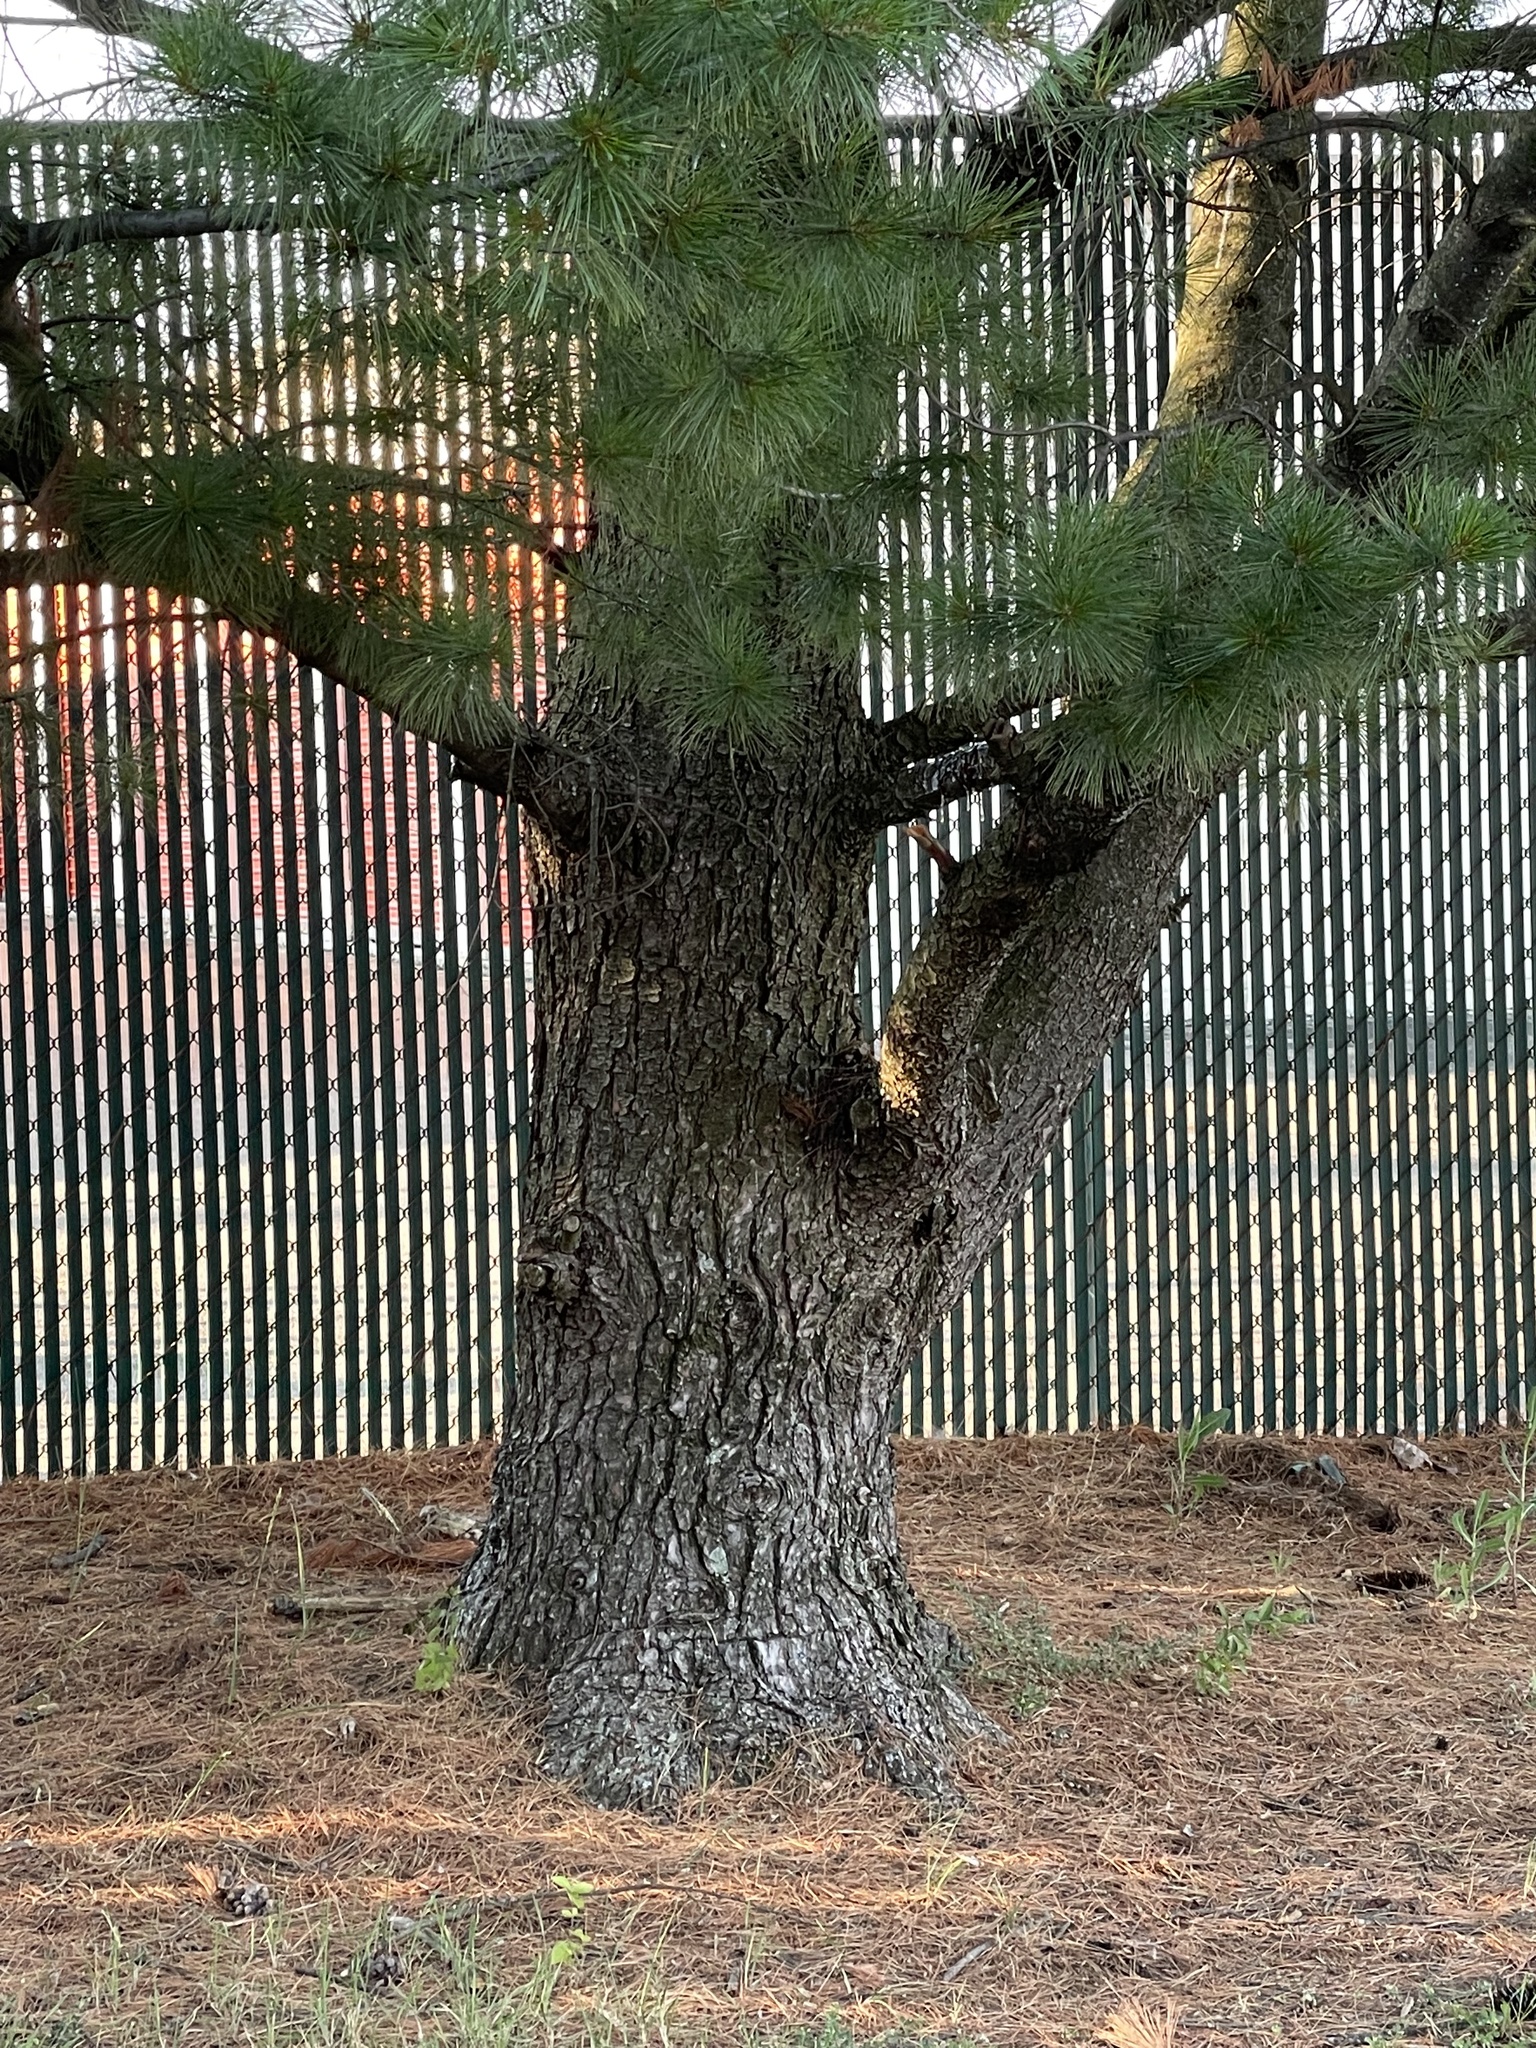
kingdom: Plantae
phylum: Tracheophyta
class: Pinopsida
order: Pinales
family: Pinaceae
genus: Pinus
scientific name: Pinus strobus
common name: Weymouth pine
